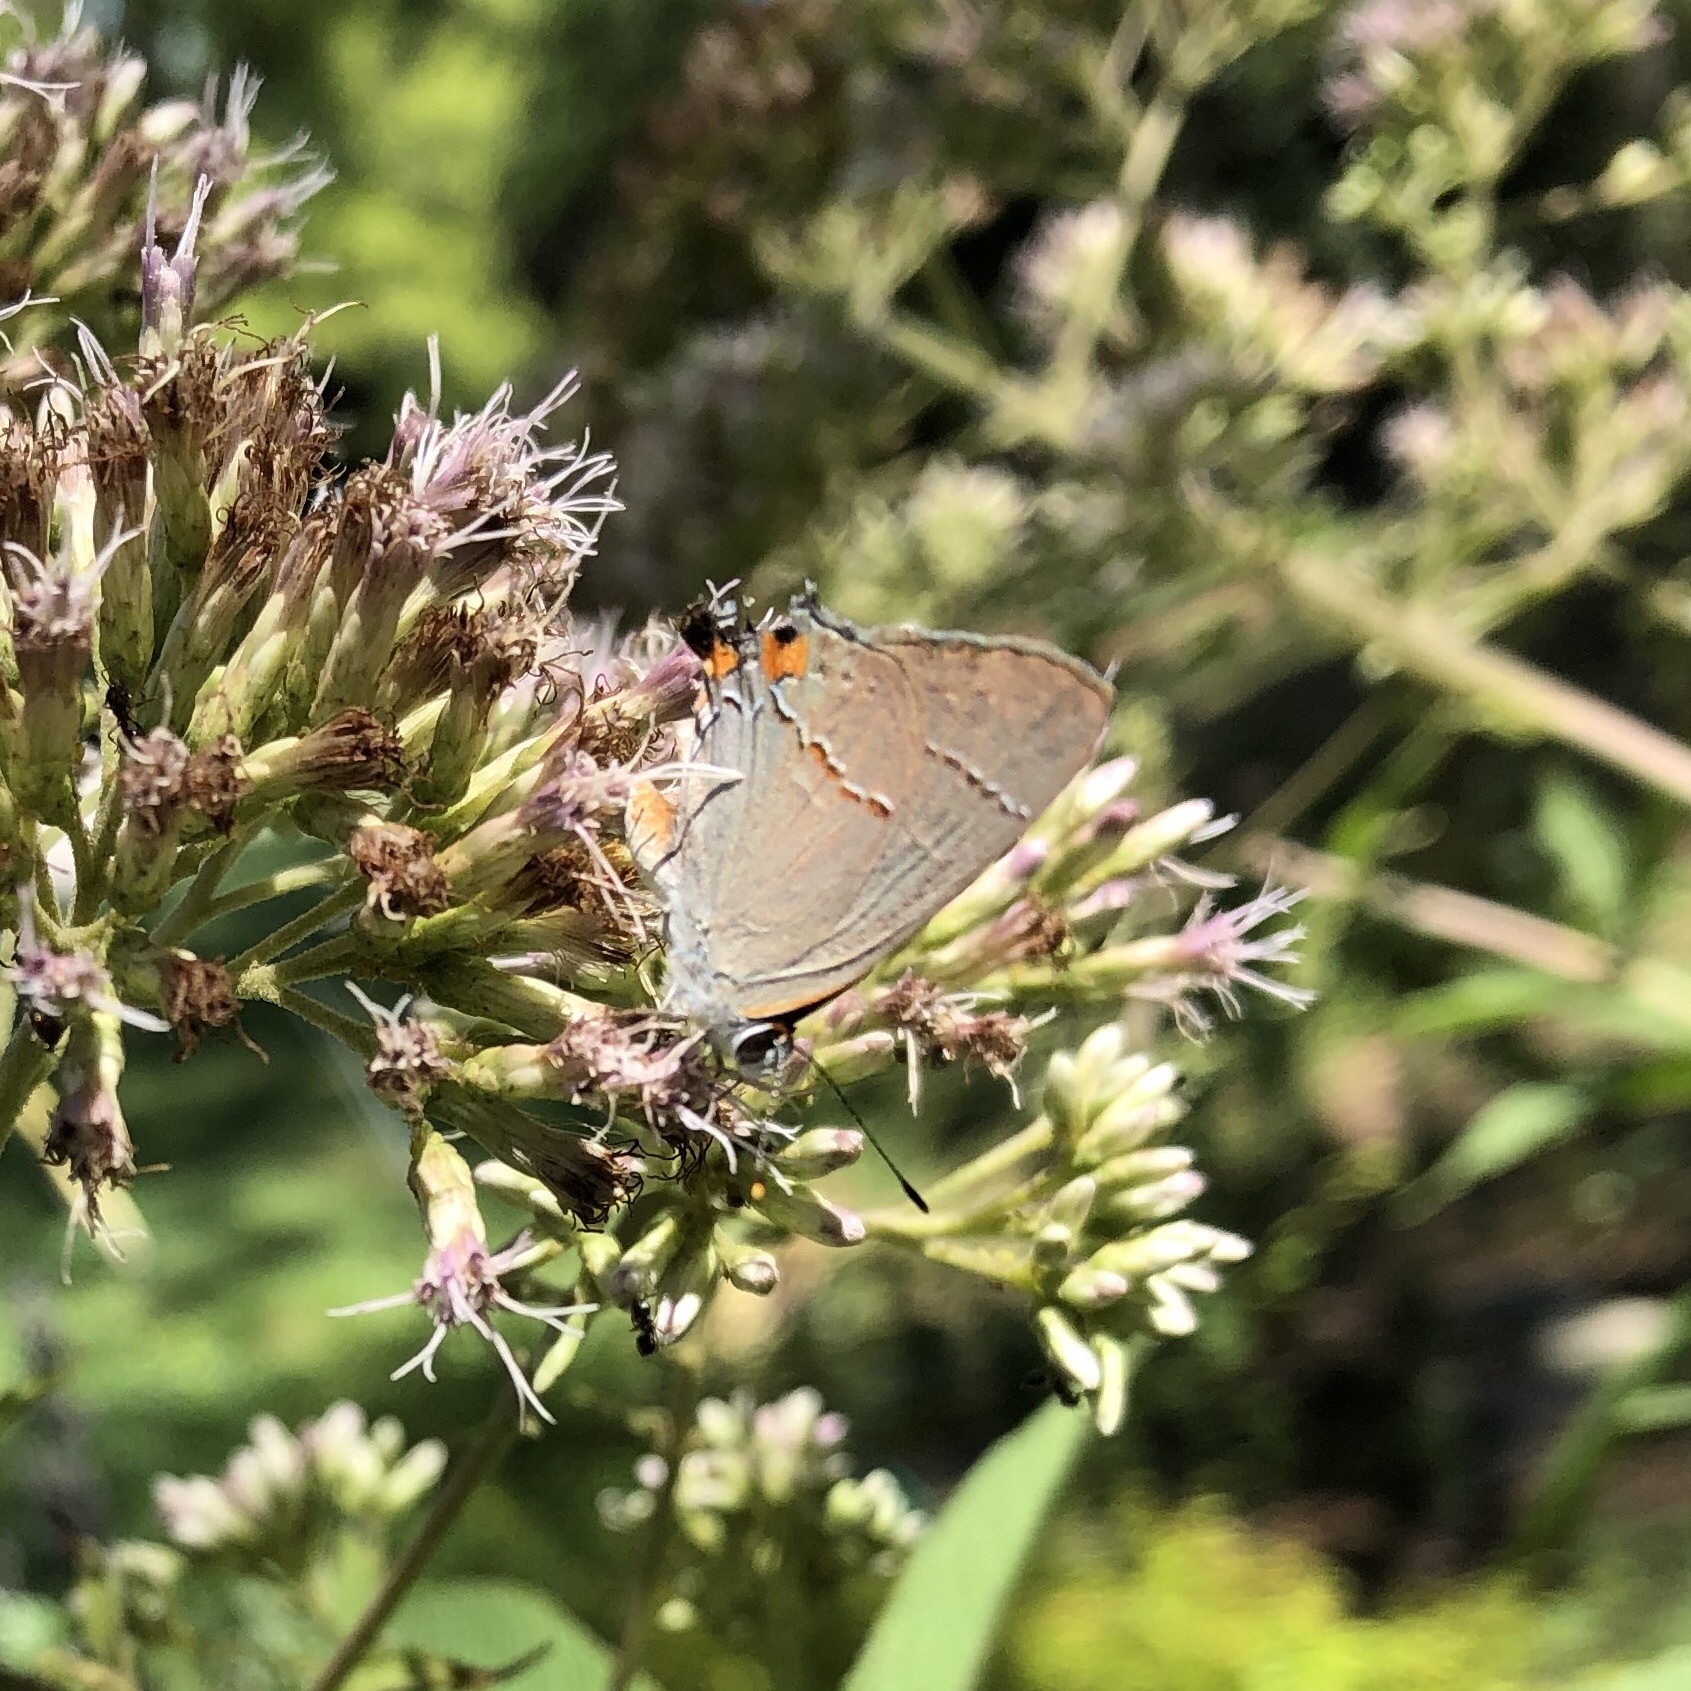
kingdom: Animalia
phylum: Arthropoda
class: Insecta
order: Lepidoptera
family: Lycaenidae
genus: Strymon
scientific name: Strymon melinus
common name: Gray hairstreak
